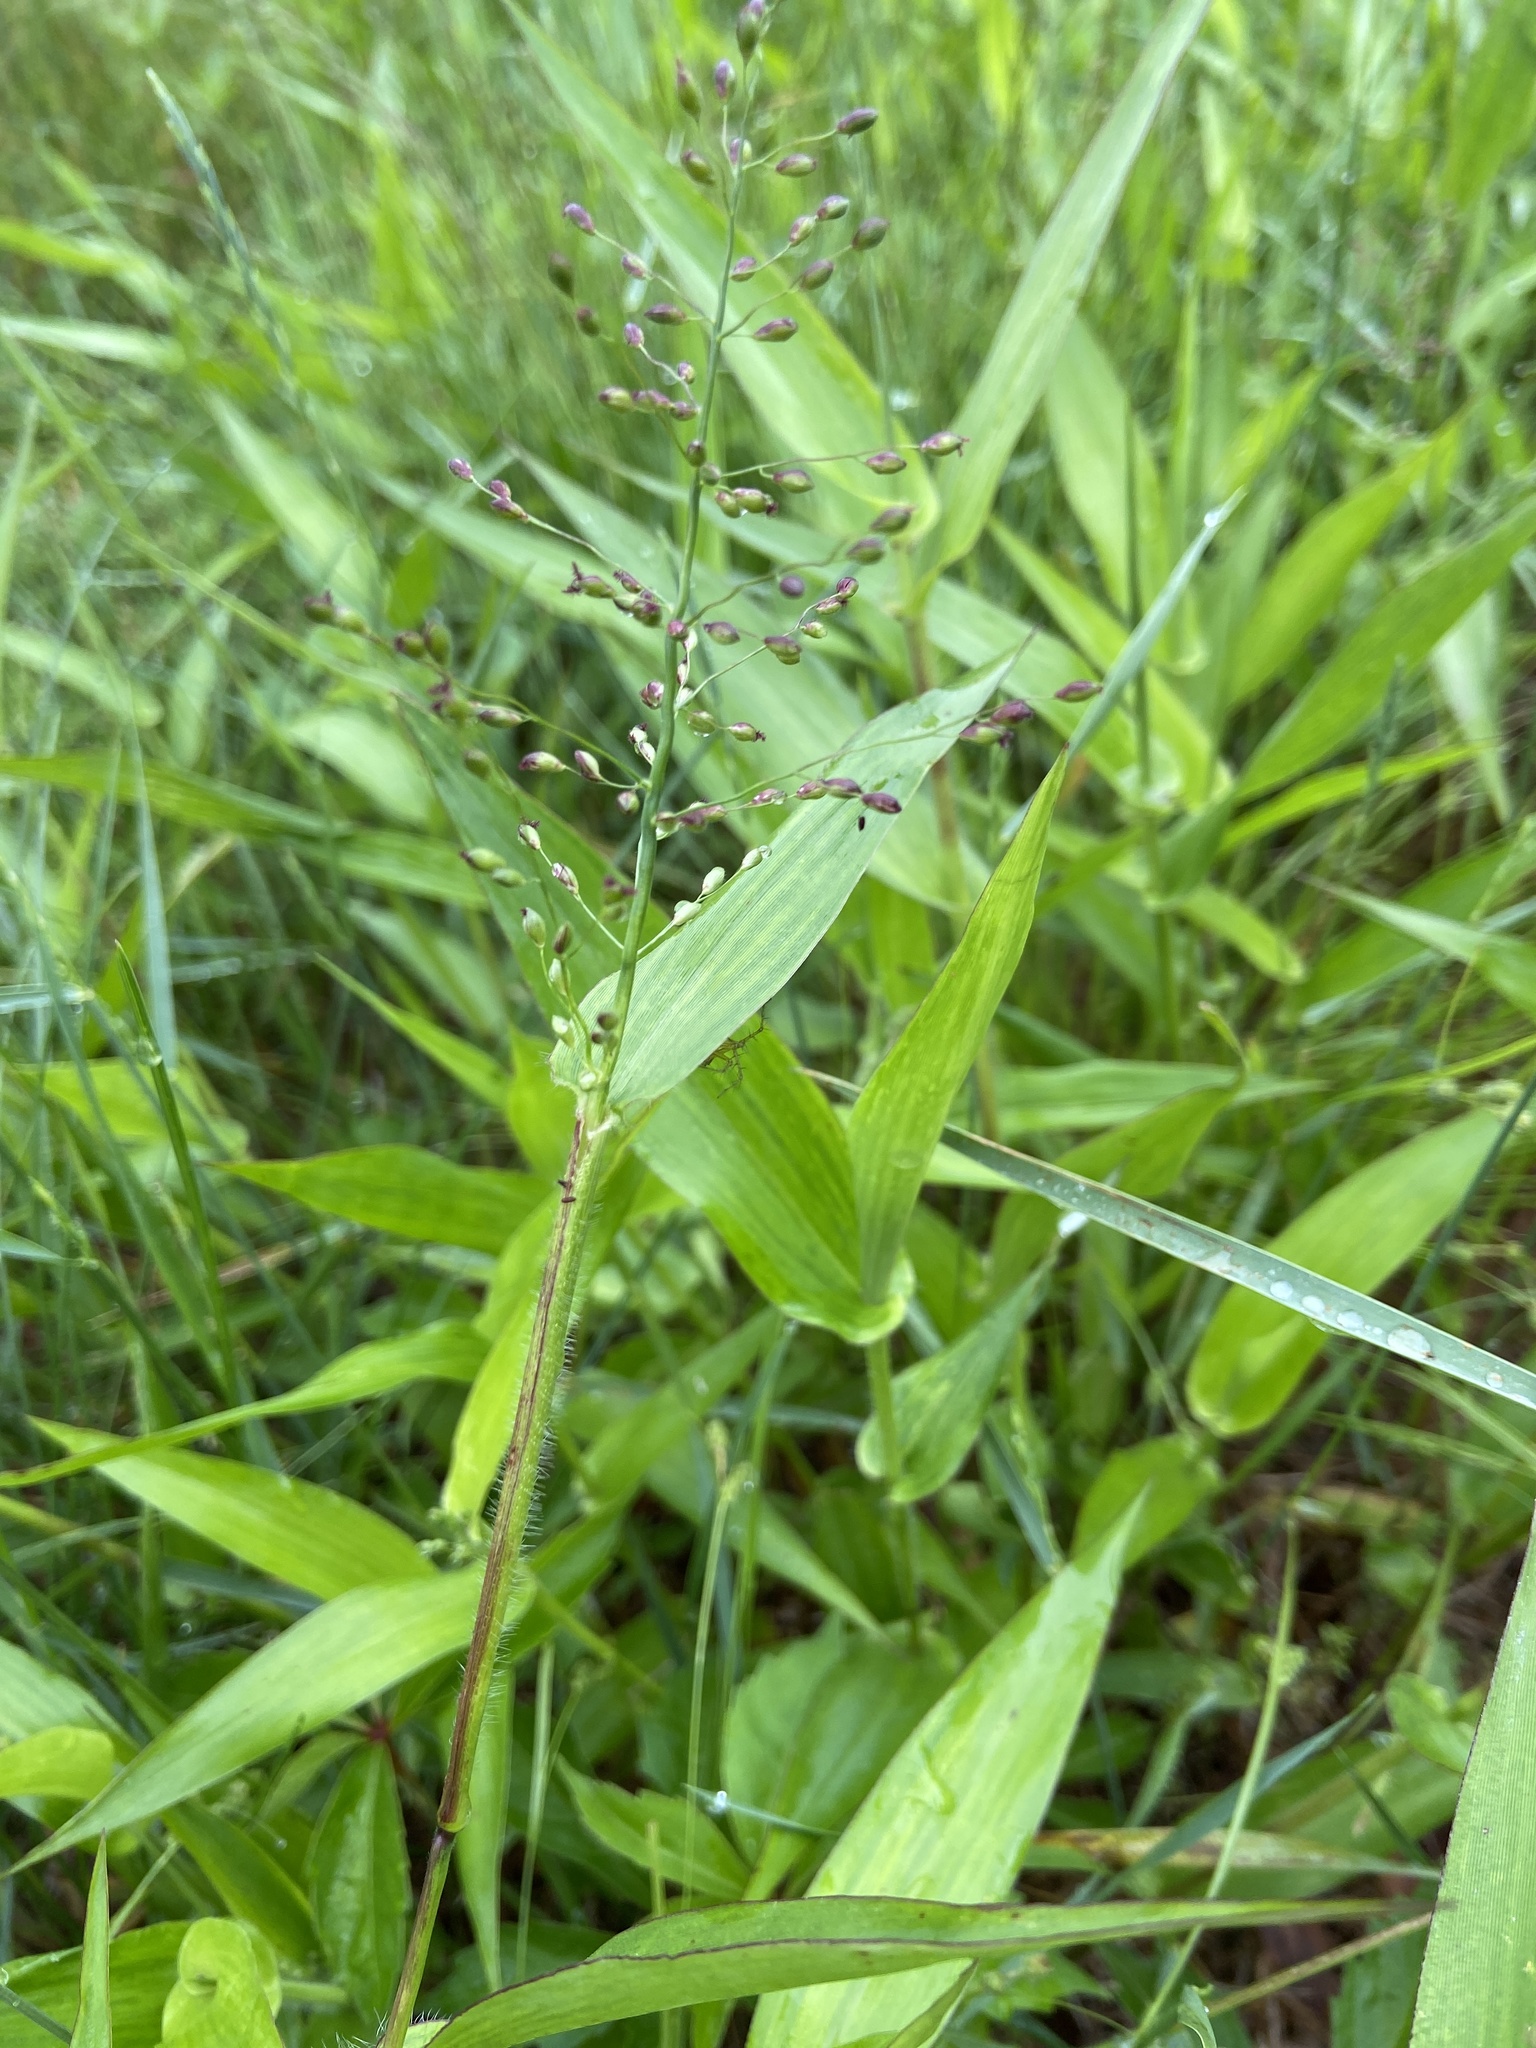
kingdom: Plantae
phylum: Tracheophyta
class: Liliopsida
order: Poales
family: Poaceae
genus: Dichanthelium
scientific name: Dichanthelium clandestinum
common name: Deer-tongue grass
